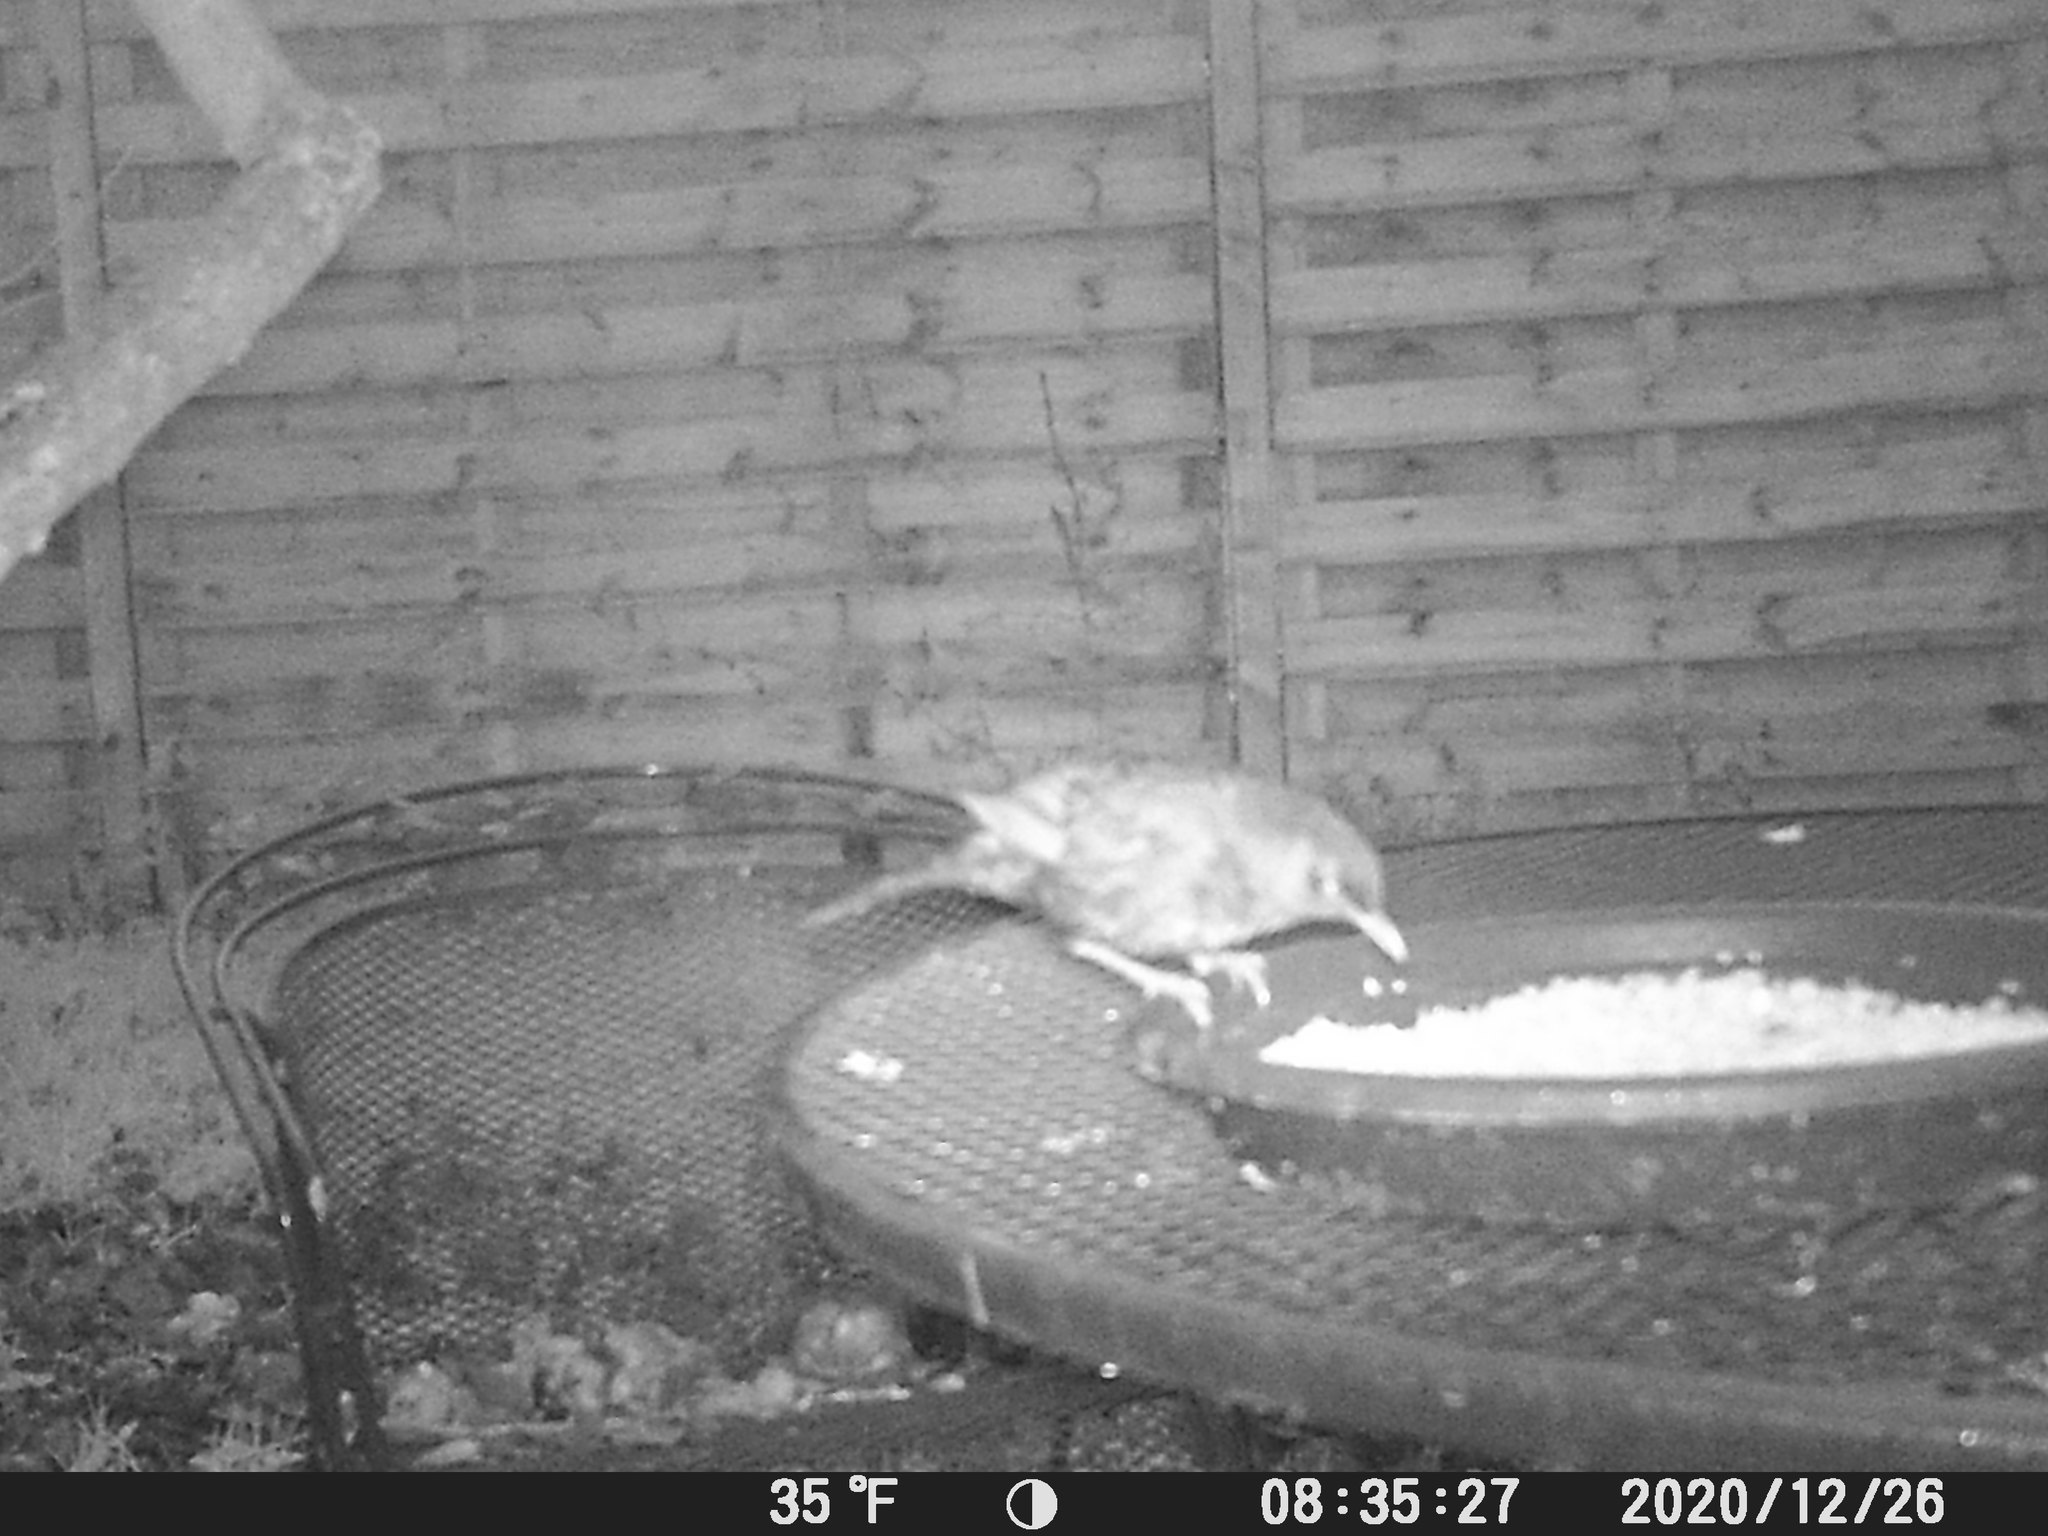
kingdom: Animalia
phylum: Chordata
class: Aves
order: Passeriformes
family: Turdidae
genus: Turdus
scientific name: Turdus merula
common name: Common blackbird
